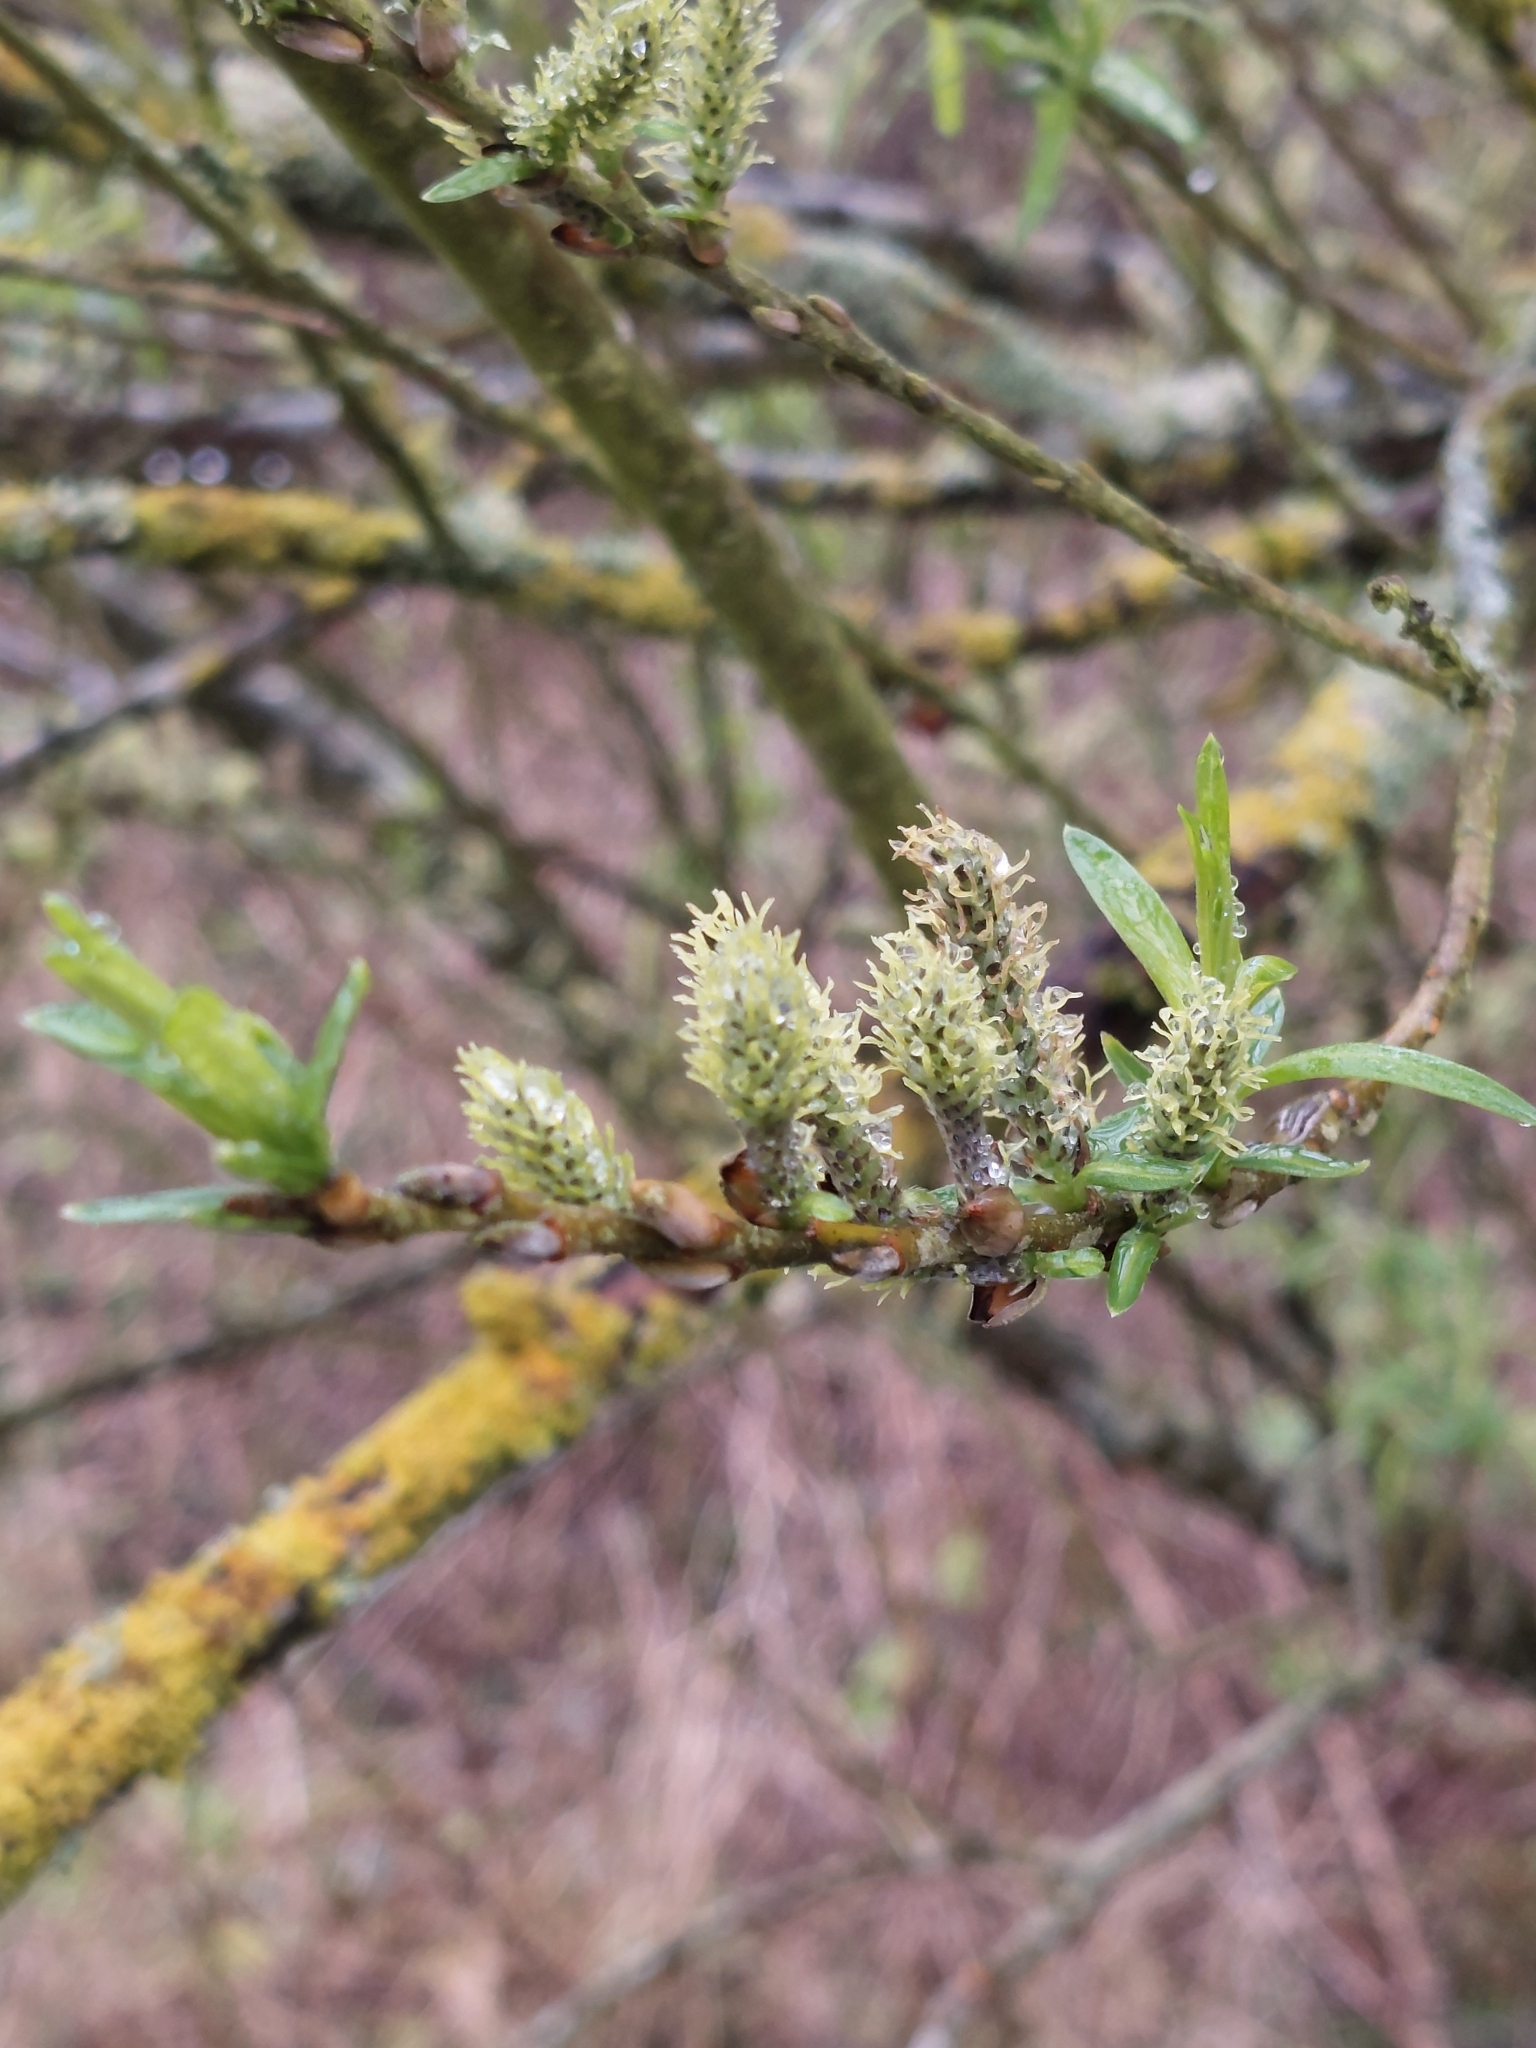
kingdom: Plantae
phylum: Tracheophyta
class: Magnoliopsida
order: Malpighiales
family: Salicaceae
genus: Salix
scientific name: Salix viminalis
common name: Osier
